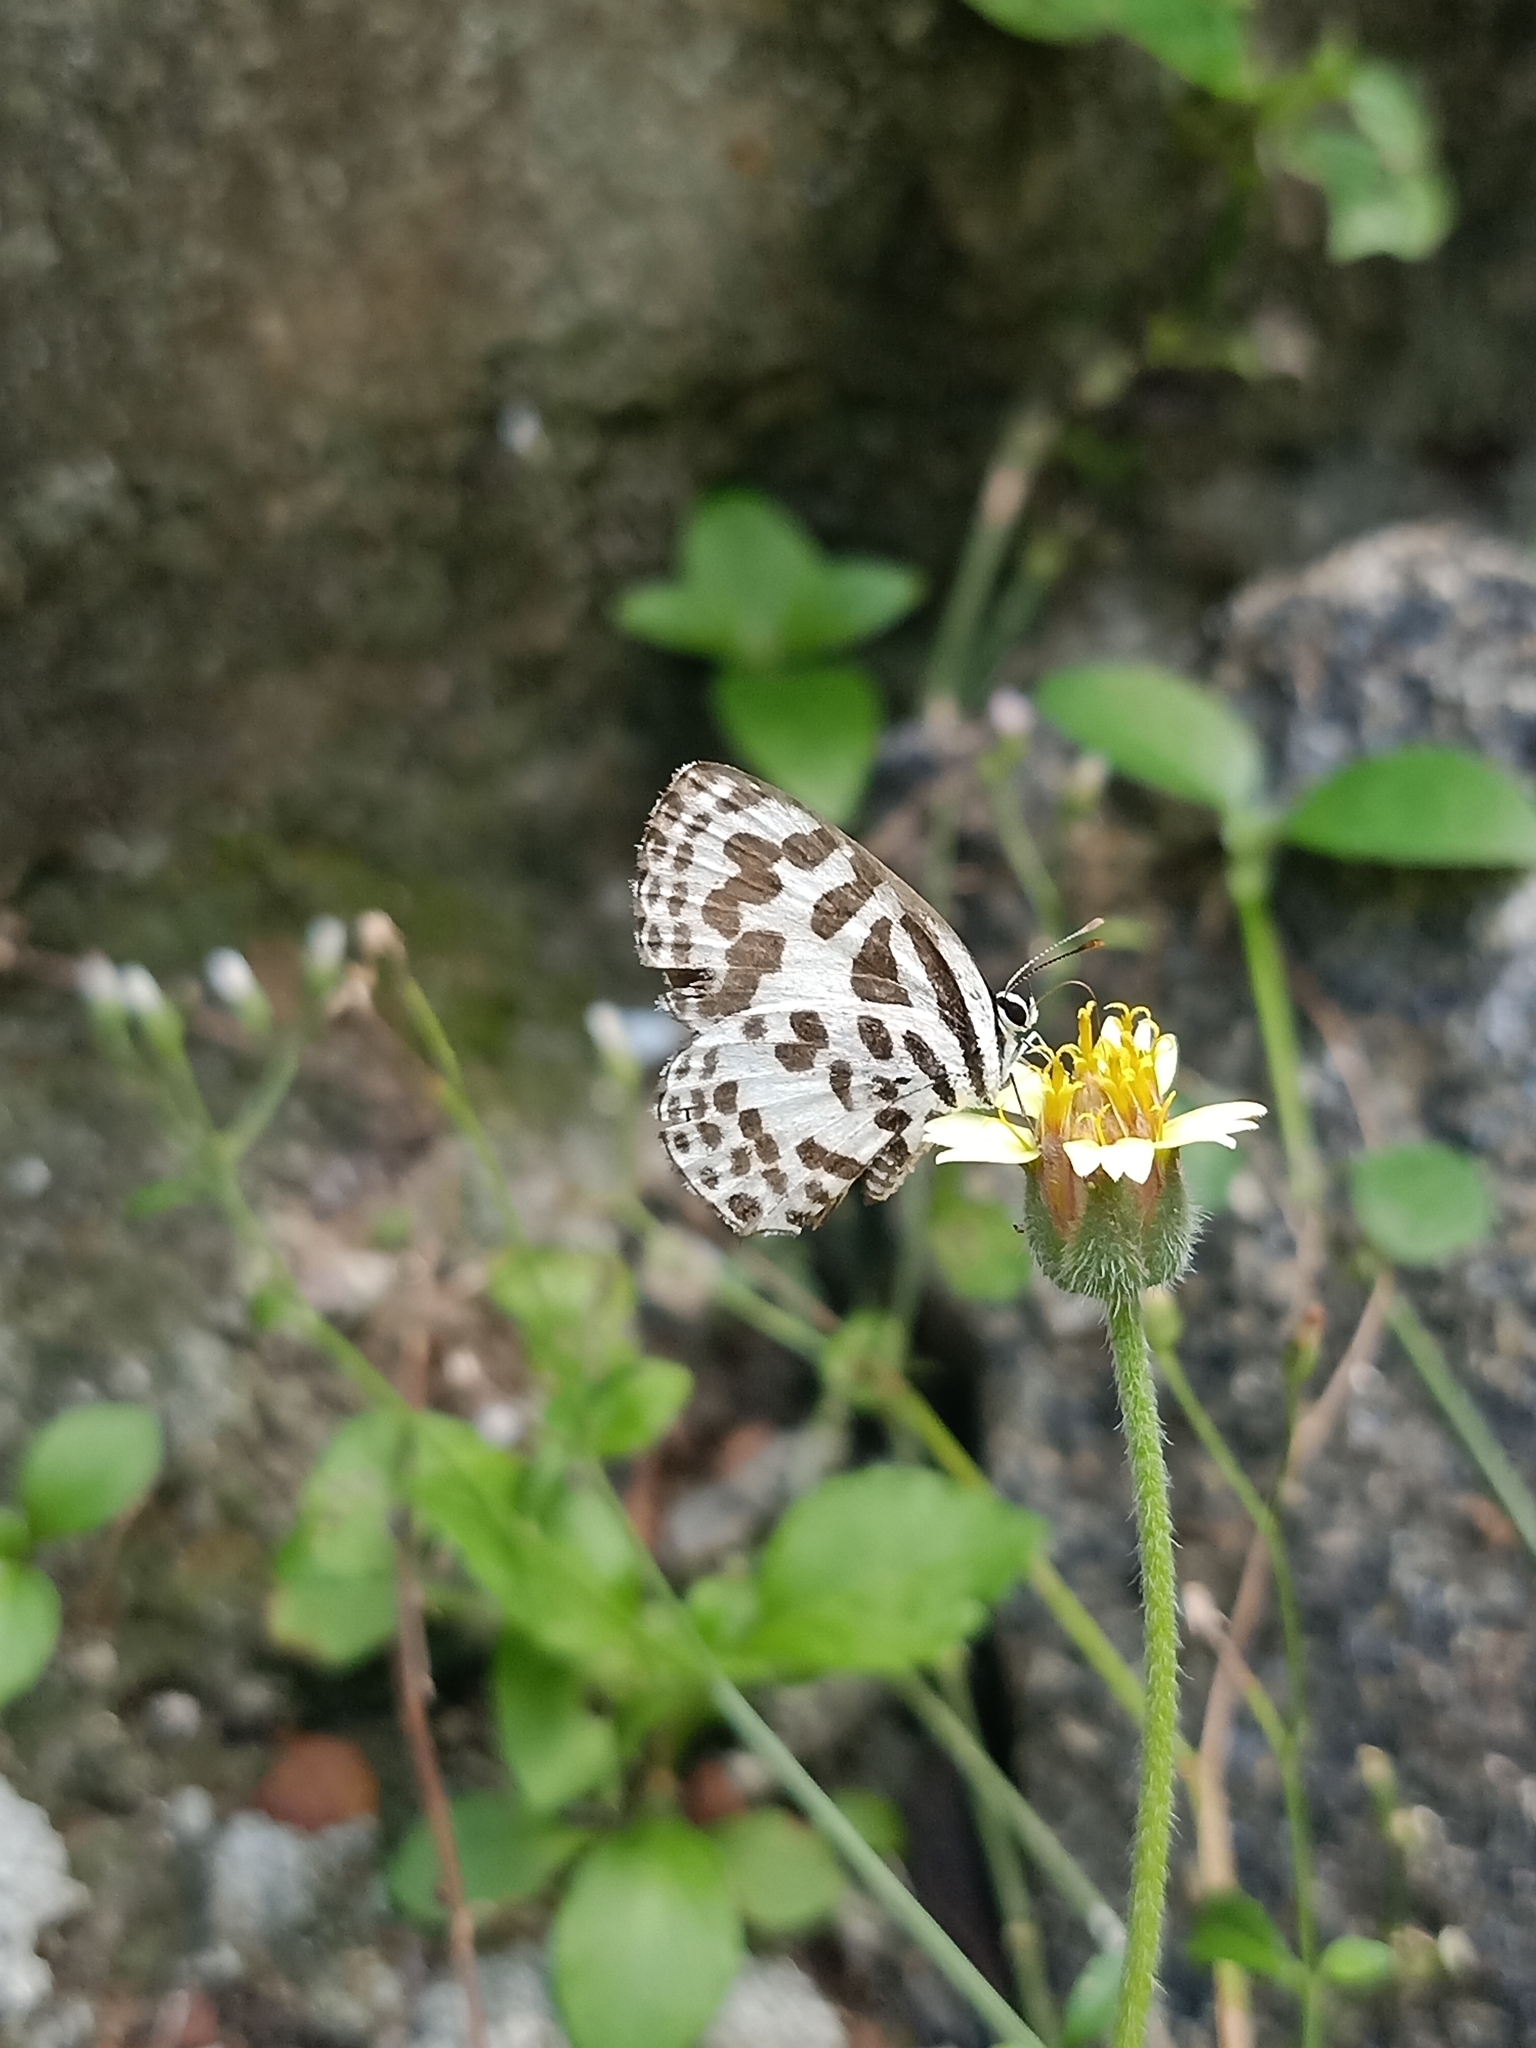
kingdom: Animalia
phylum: Arthropoda
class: Insecta
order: Lepidoptera
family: Lycaenidae
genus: Castalius
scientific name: Castalius rosimon
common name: Common pierrot
